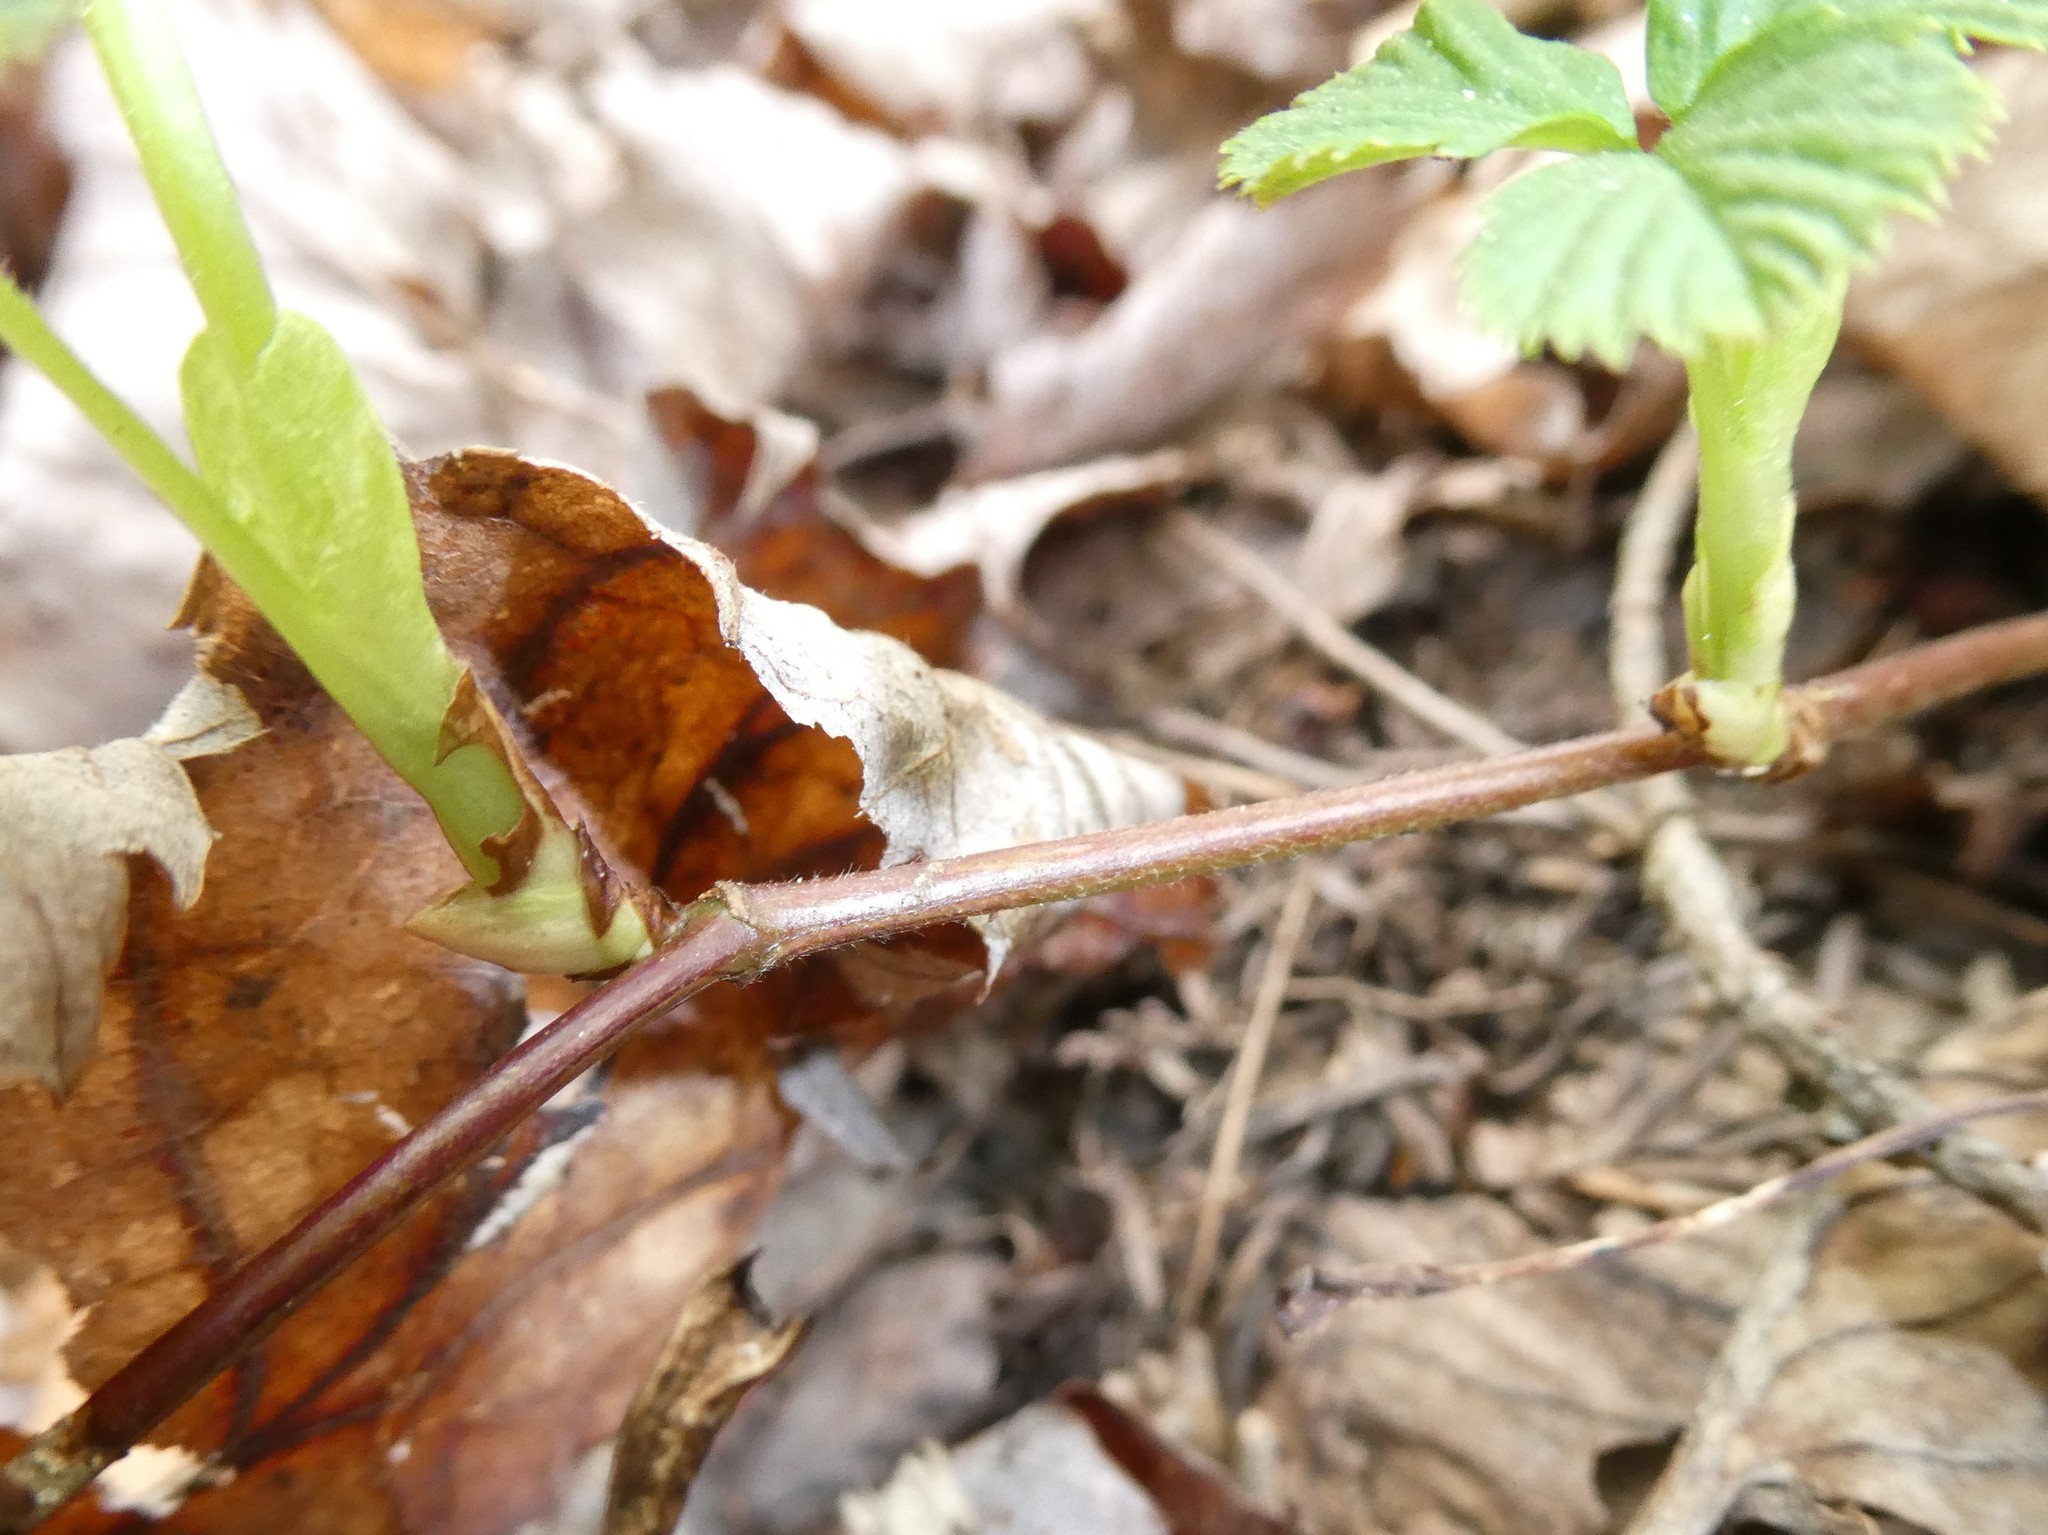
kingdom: Plantae
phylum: Tracheophyta
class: Magnoliopsida
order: Rosales
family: Rosaceae
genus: Rubus
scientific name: Rubus pubescens
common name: Dwarf raspberry
